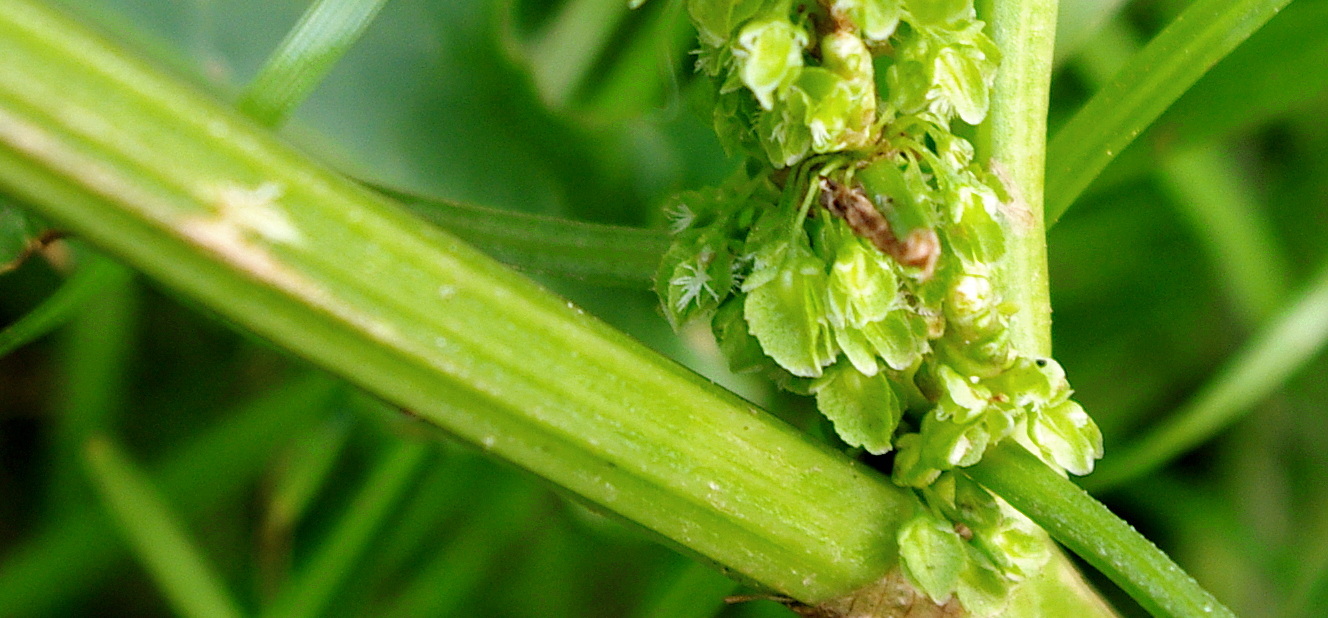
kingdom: Plantae
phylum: Tracheophyta
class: Magnoliopsida
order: Caryophyllales
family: Polygonaceae
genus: Rumex
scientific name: Rumex crispus
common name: Curled dock
